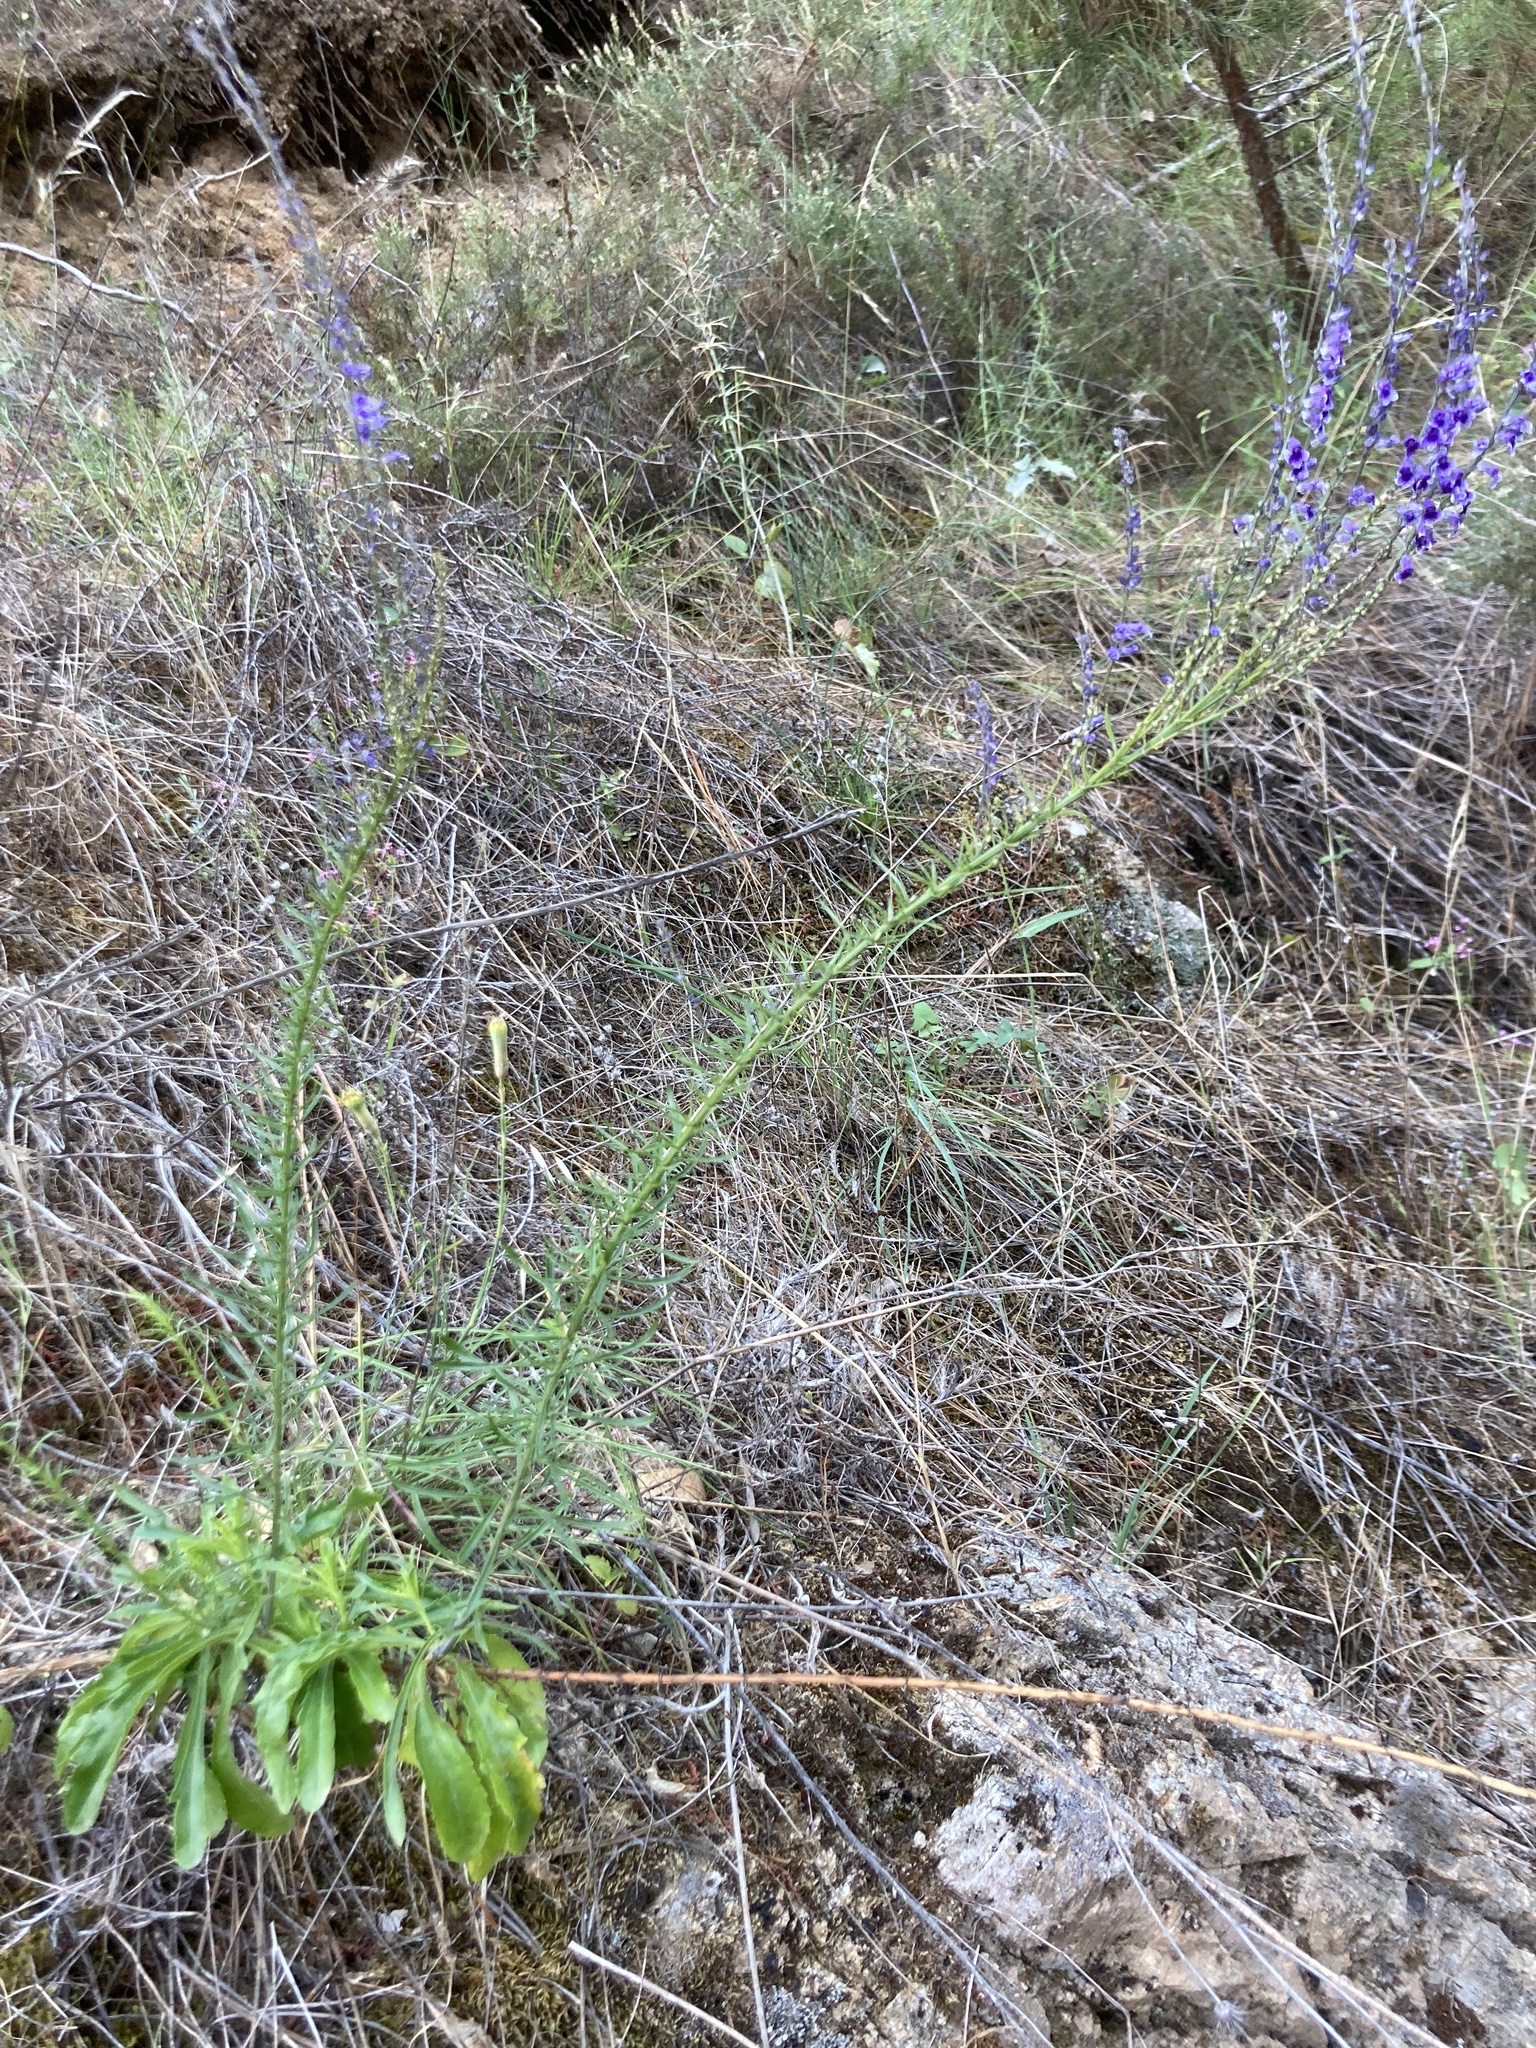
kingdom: Plantae
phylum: Tracheophyta
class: Magnoliopsida
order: Lamiales
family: Plantaginaceae
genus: Anarrhinum
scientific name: Anarrhinum bellidifolium
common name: Daisy-leaved toadflax
